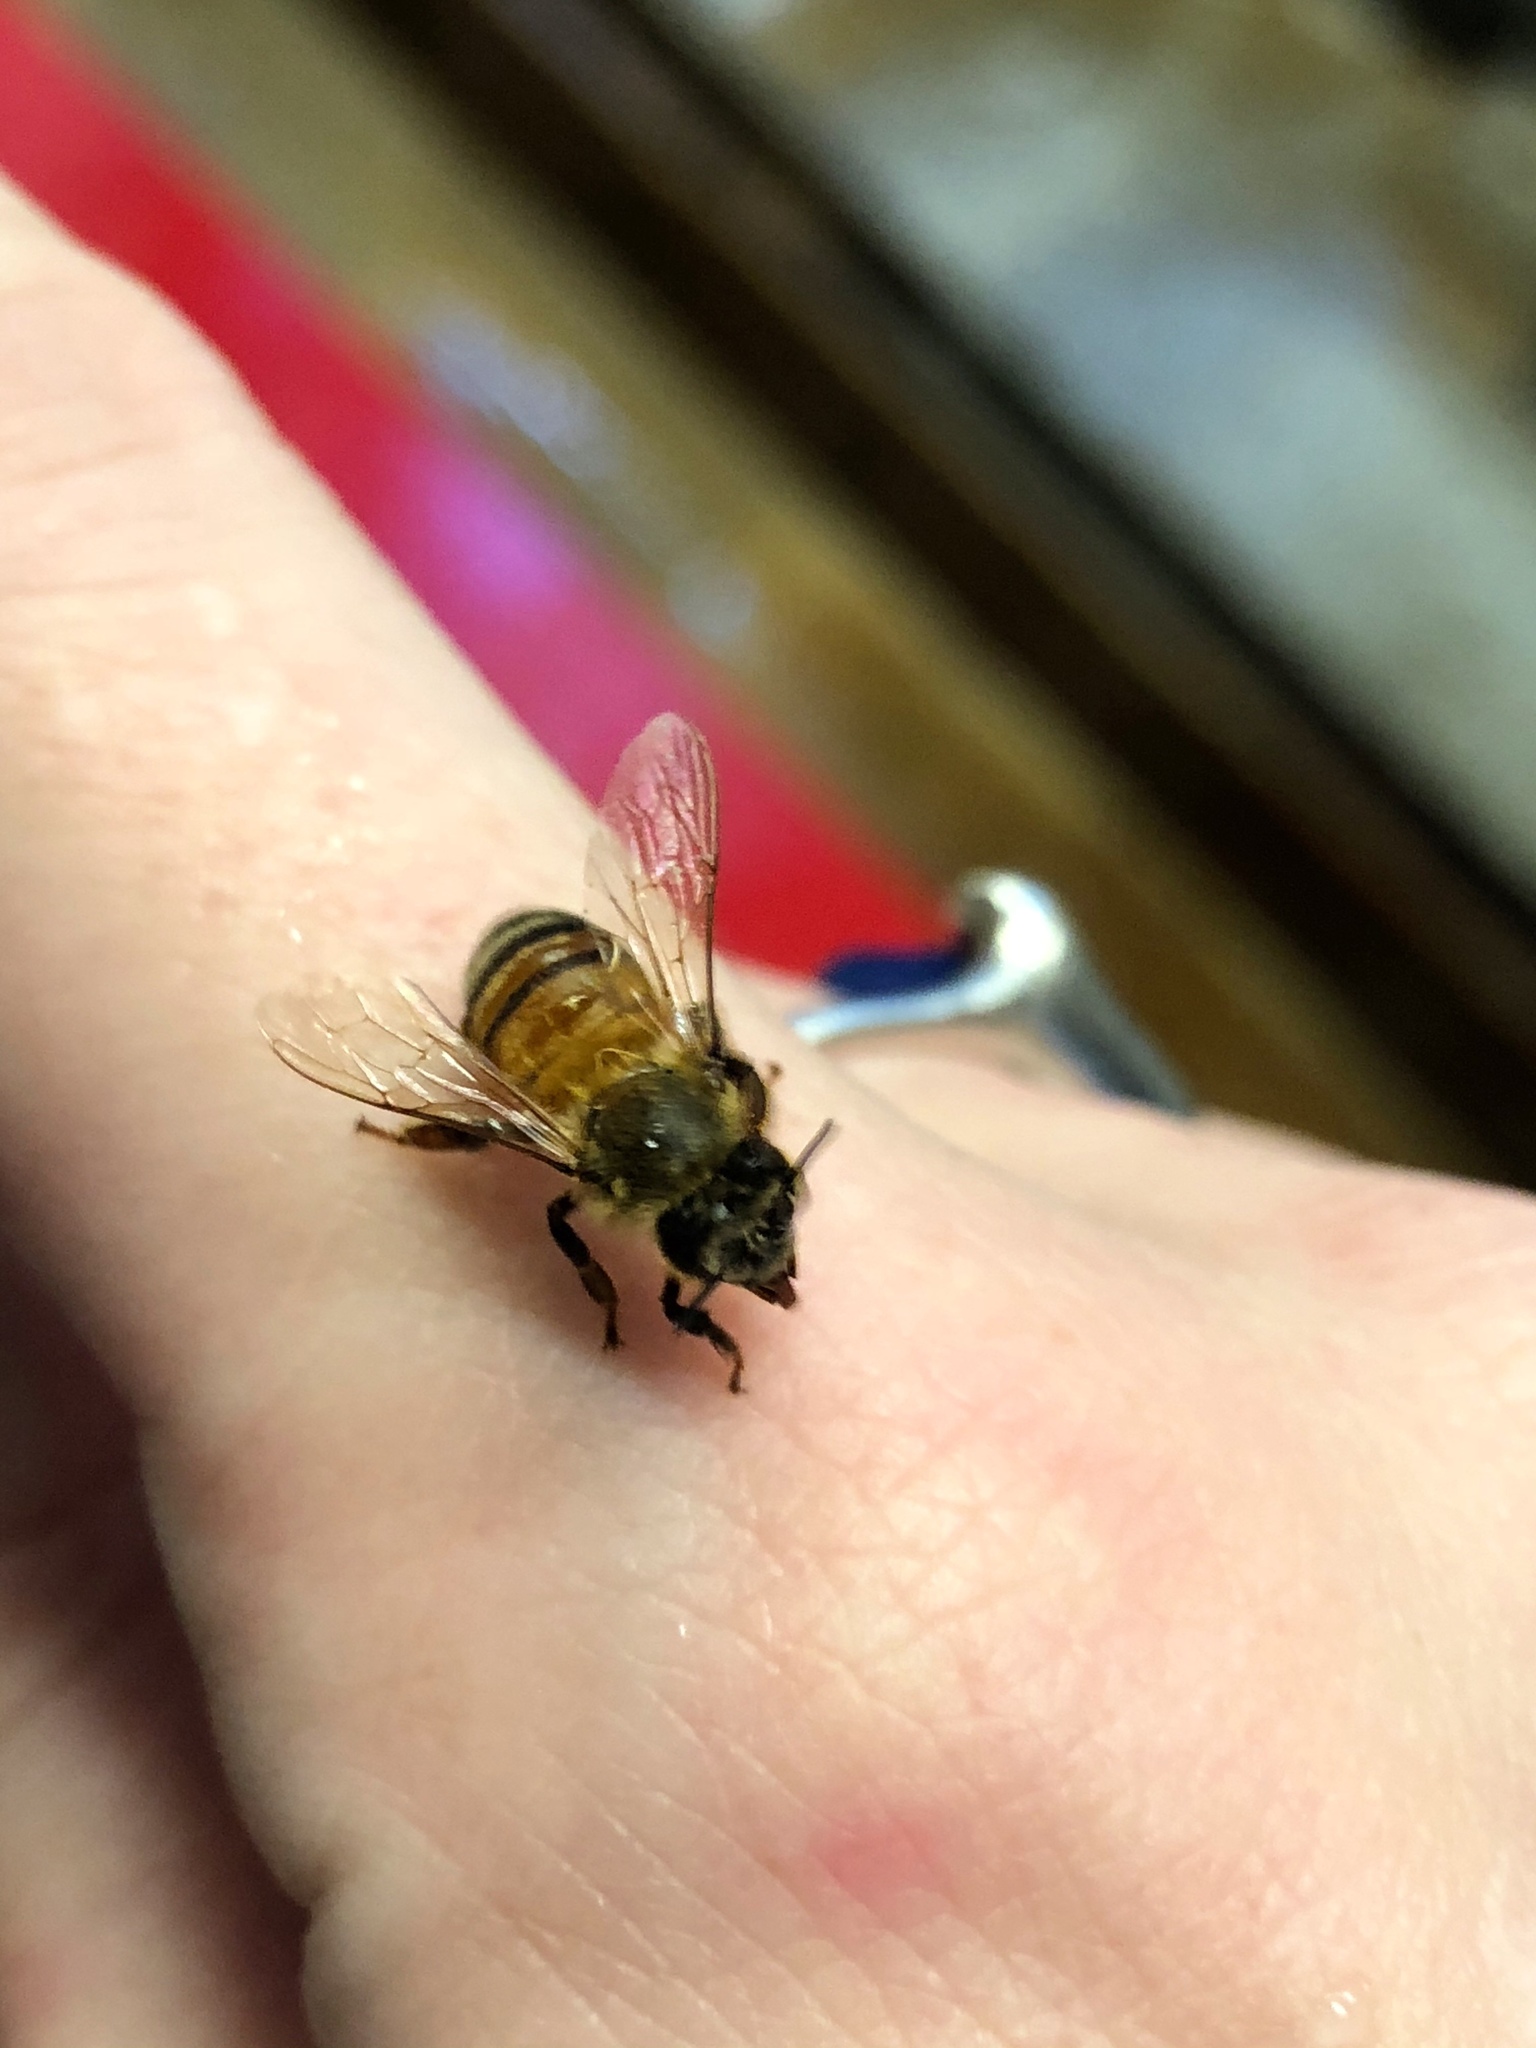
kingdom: Animalia
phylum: Arthropoda
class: Insecta
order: Hymenoptera
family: Apidae
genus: Apis
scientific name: Apis mellifera
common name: Honey bee
